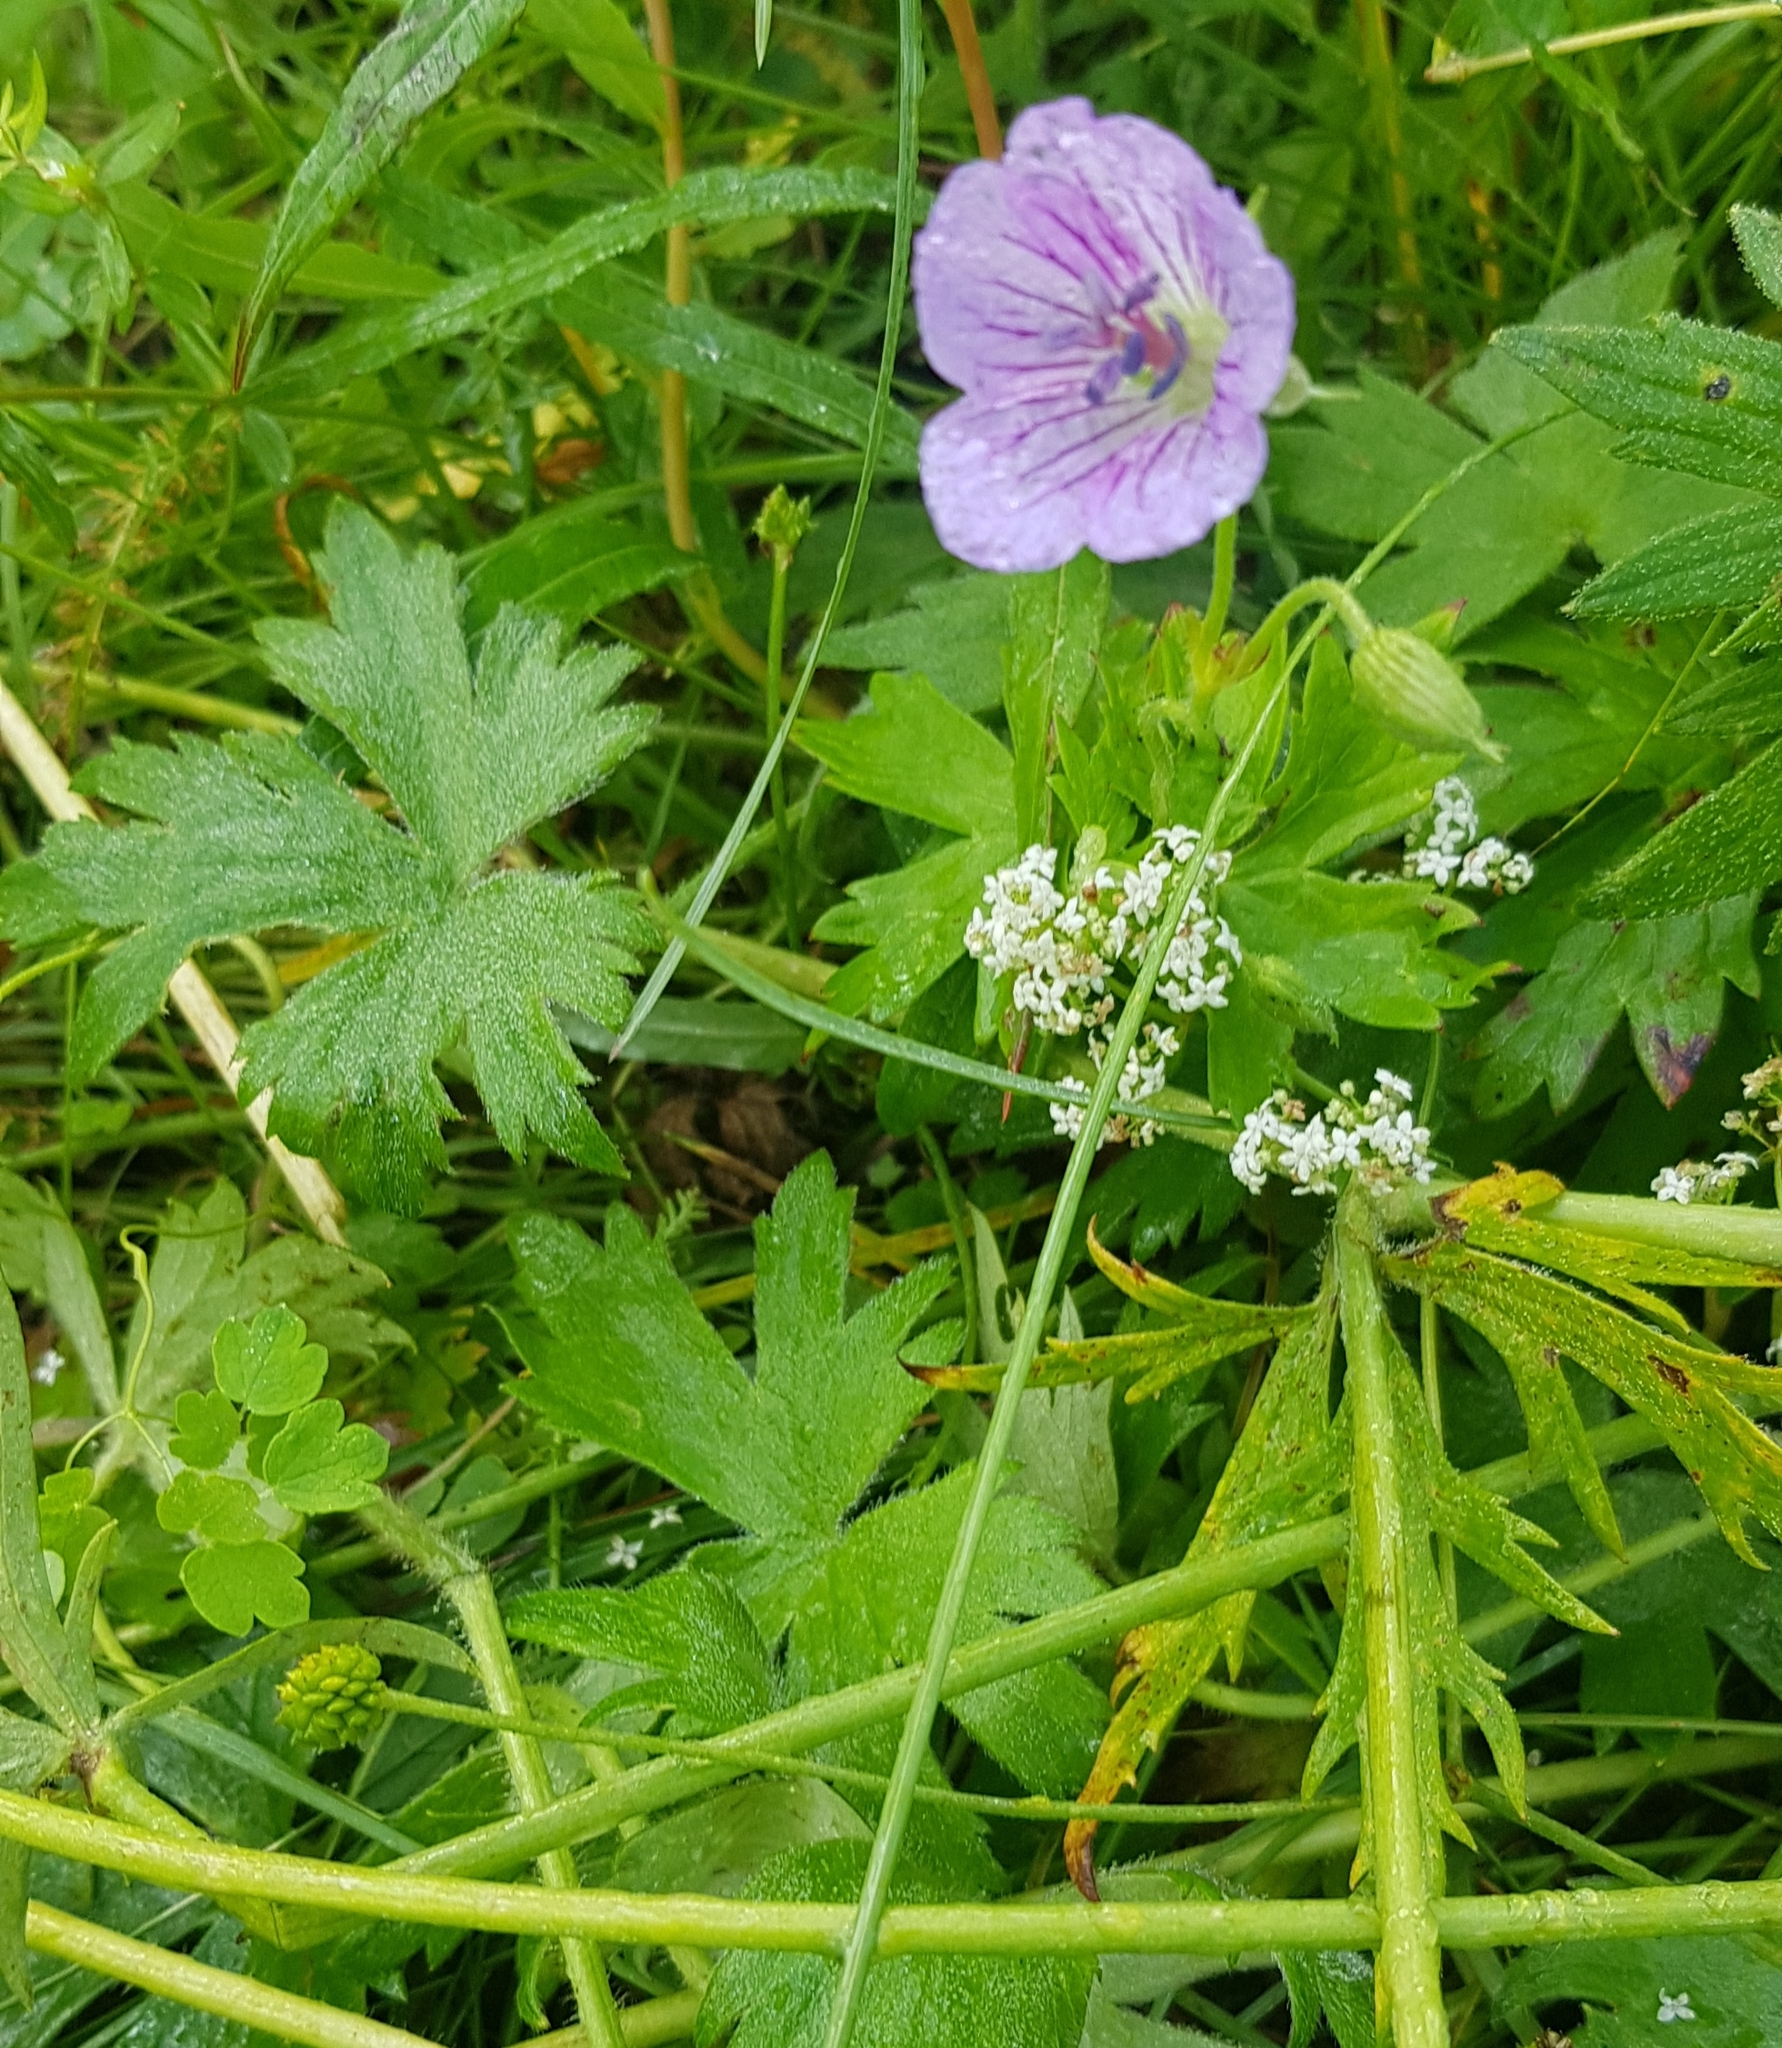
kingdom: Plantae
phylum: Tracheophyta
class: Magnoliopsida
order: Geraniales
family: Geraniaceae
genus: Geranium
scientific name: Geranium sylvaticum
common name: Wood crane's-bill
